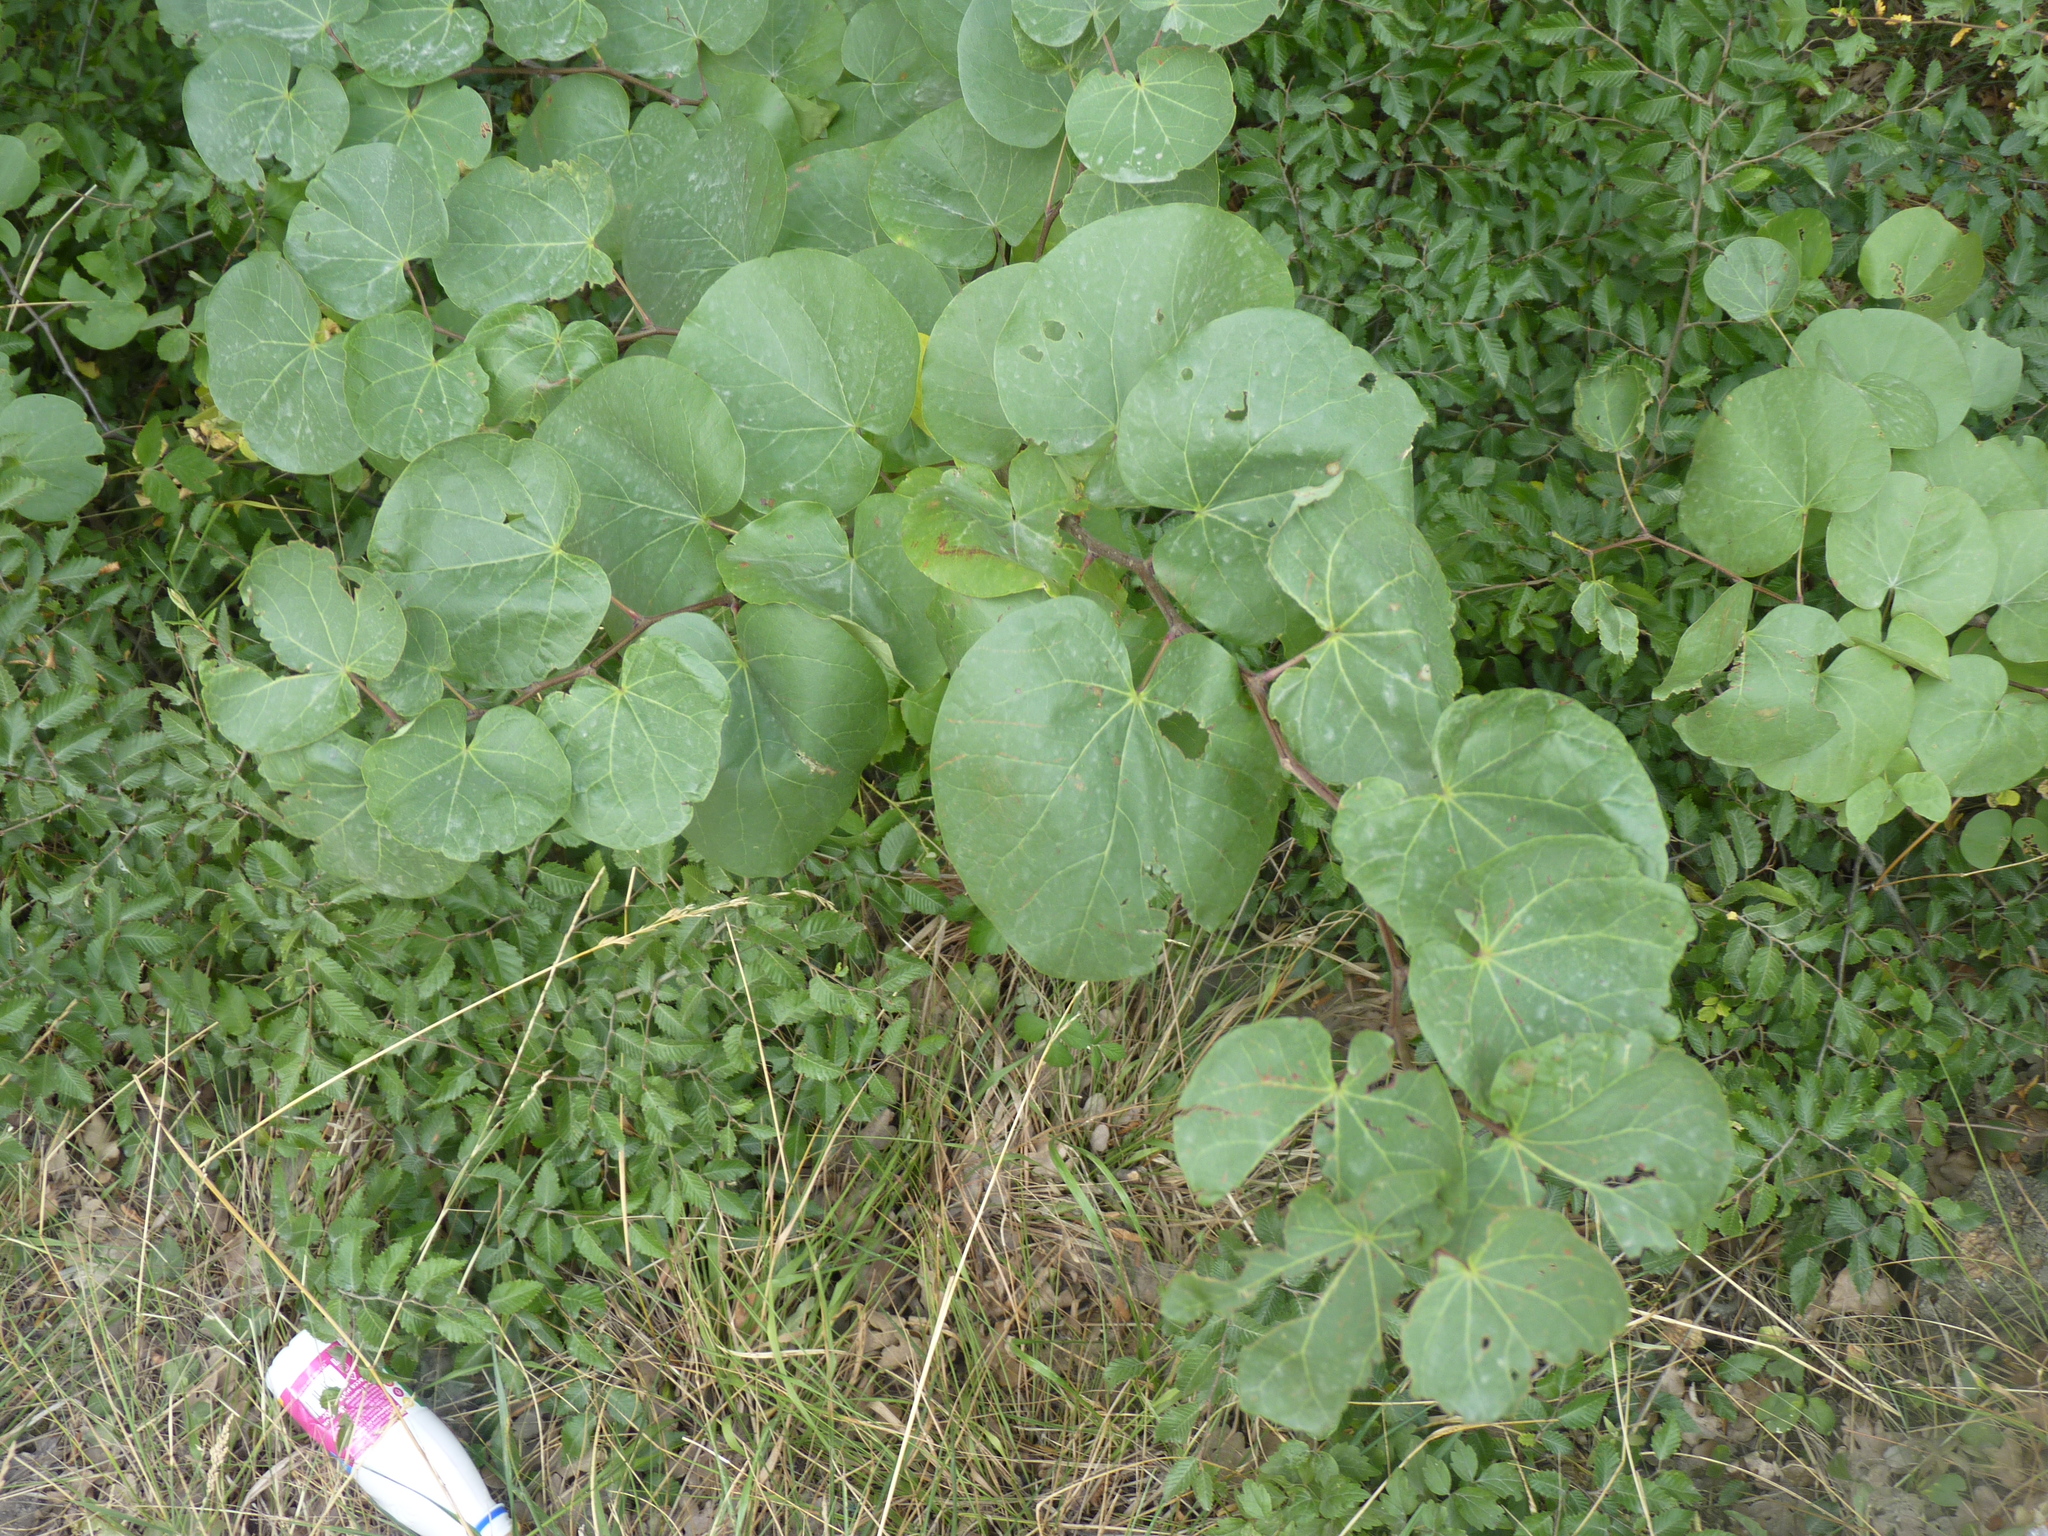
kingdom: Plantae
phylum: Tracheophyta
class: Magnoliopsida
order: Fabales
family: Fabaceae
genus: Cercis
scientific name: Cercis siliquastrum
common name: Judas tree
